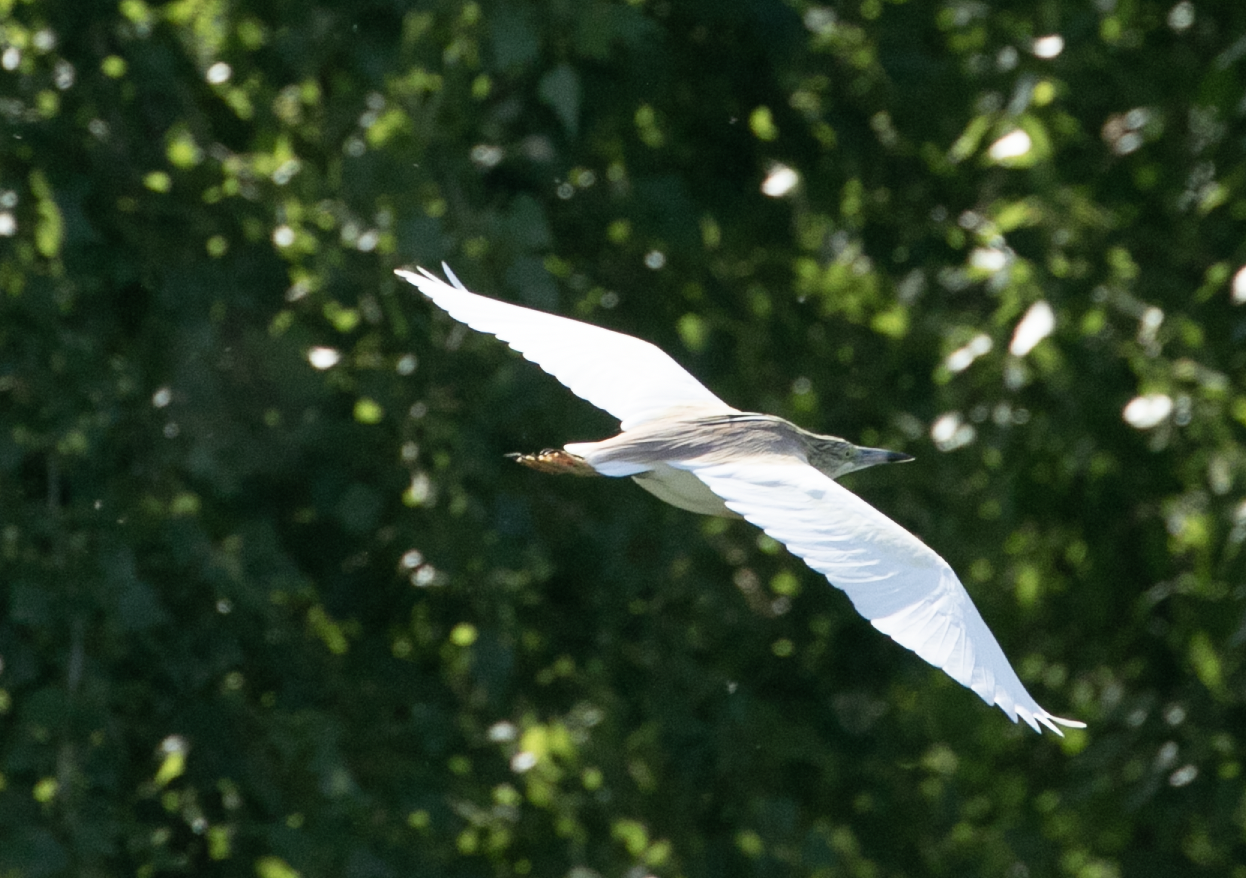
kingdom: Animalia
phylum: Chordata
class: Aves
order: Pelecaniformes
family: Ardeidae
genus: Ardeola
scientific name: Ardeola ralloides
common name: Squacco heron
